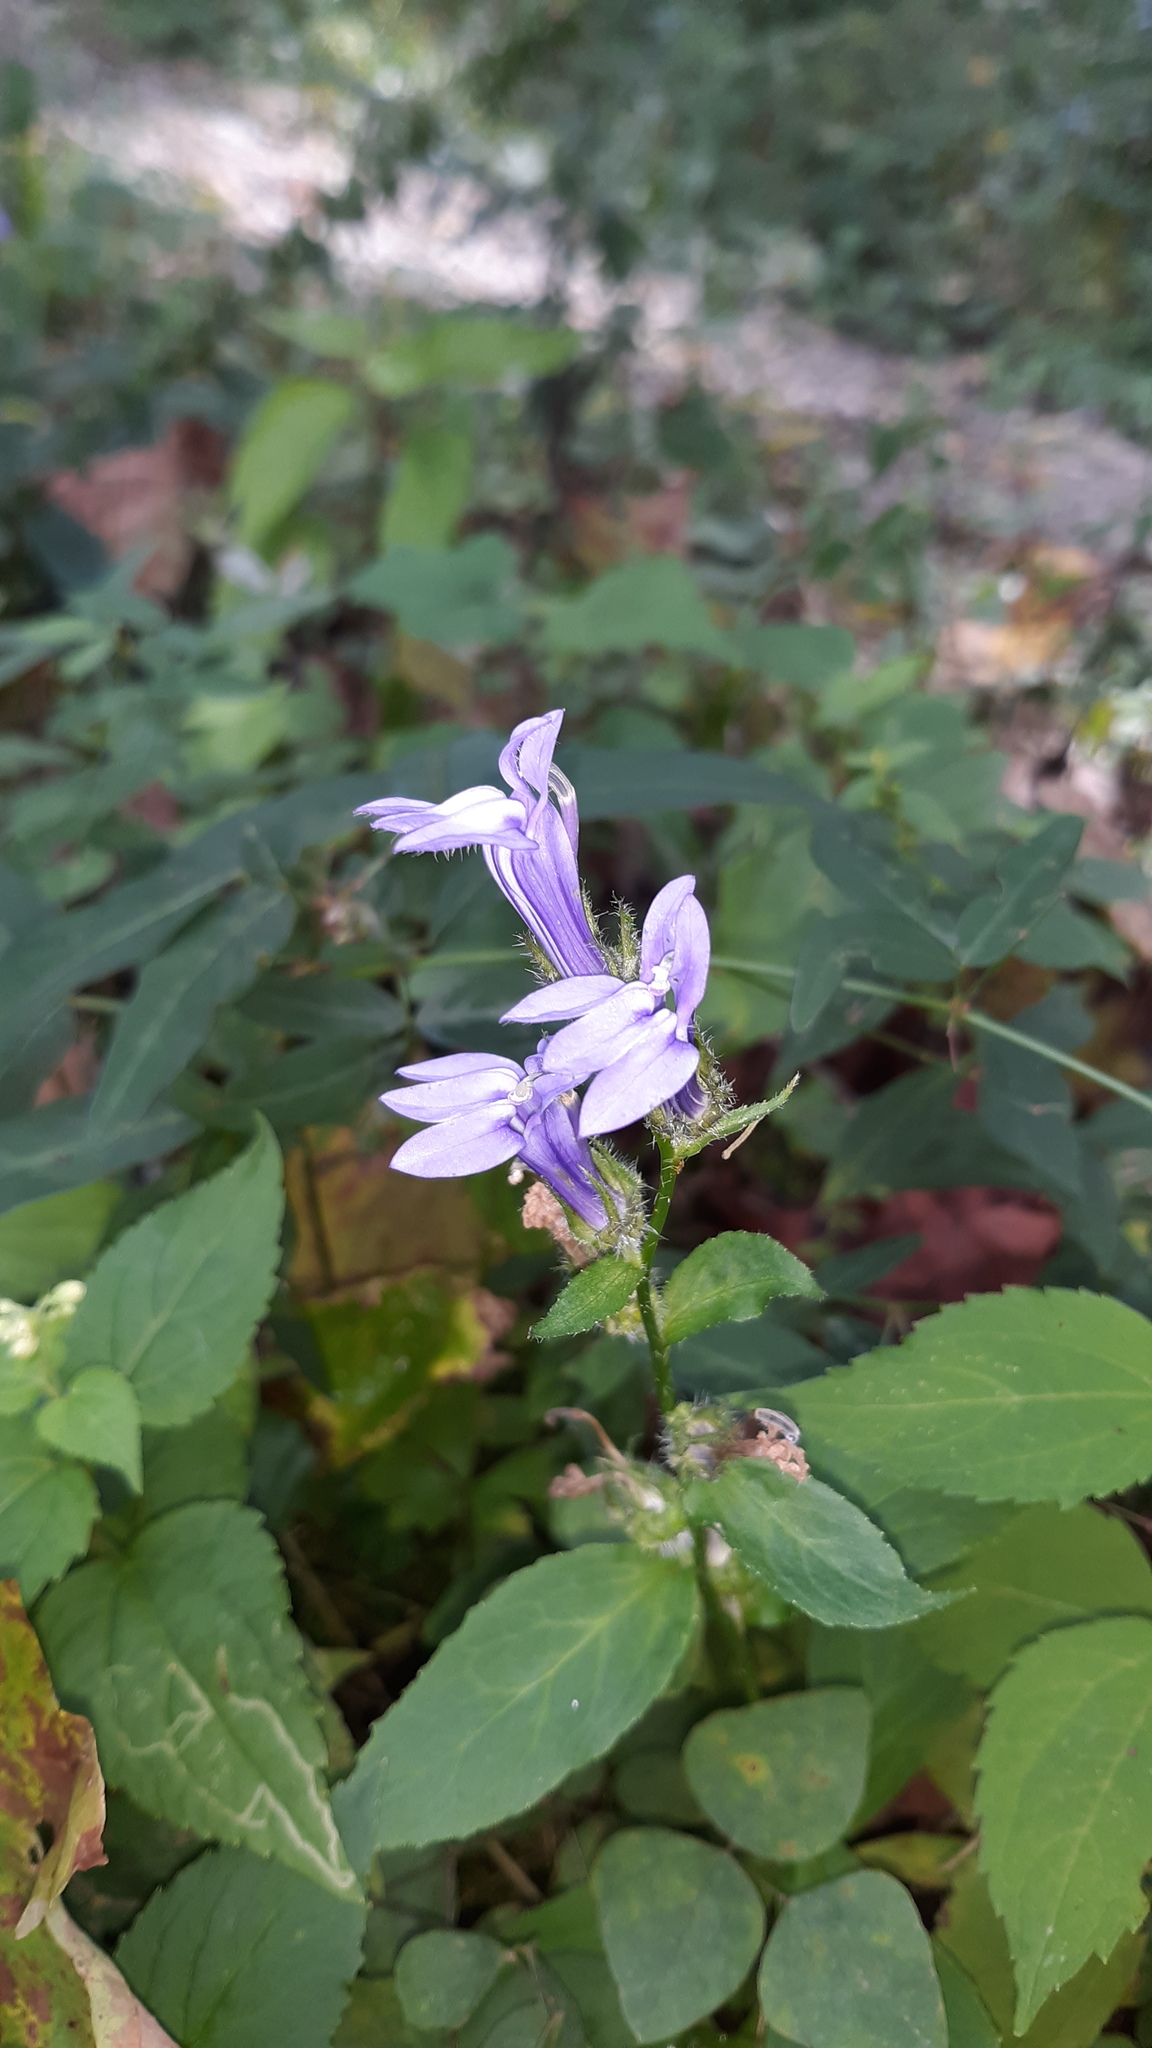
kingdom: Plantae
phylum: Tracheophyta
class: Magnoliopsida
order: Asterales
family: Campanulaceae
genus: Lobelia
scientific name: Lobelia siphilitica
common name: Great lobelia
